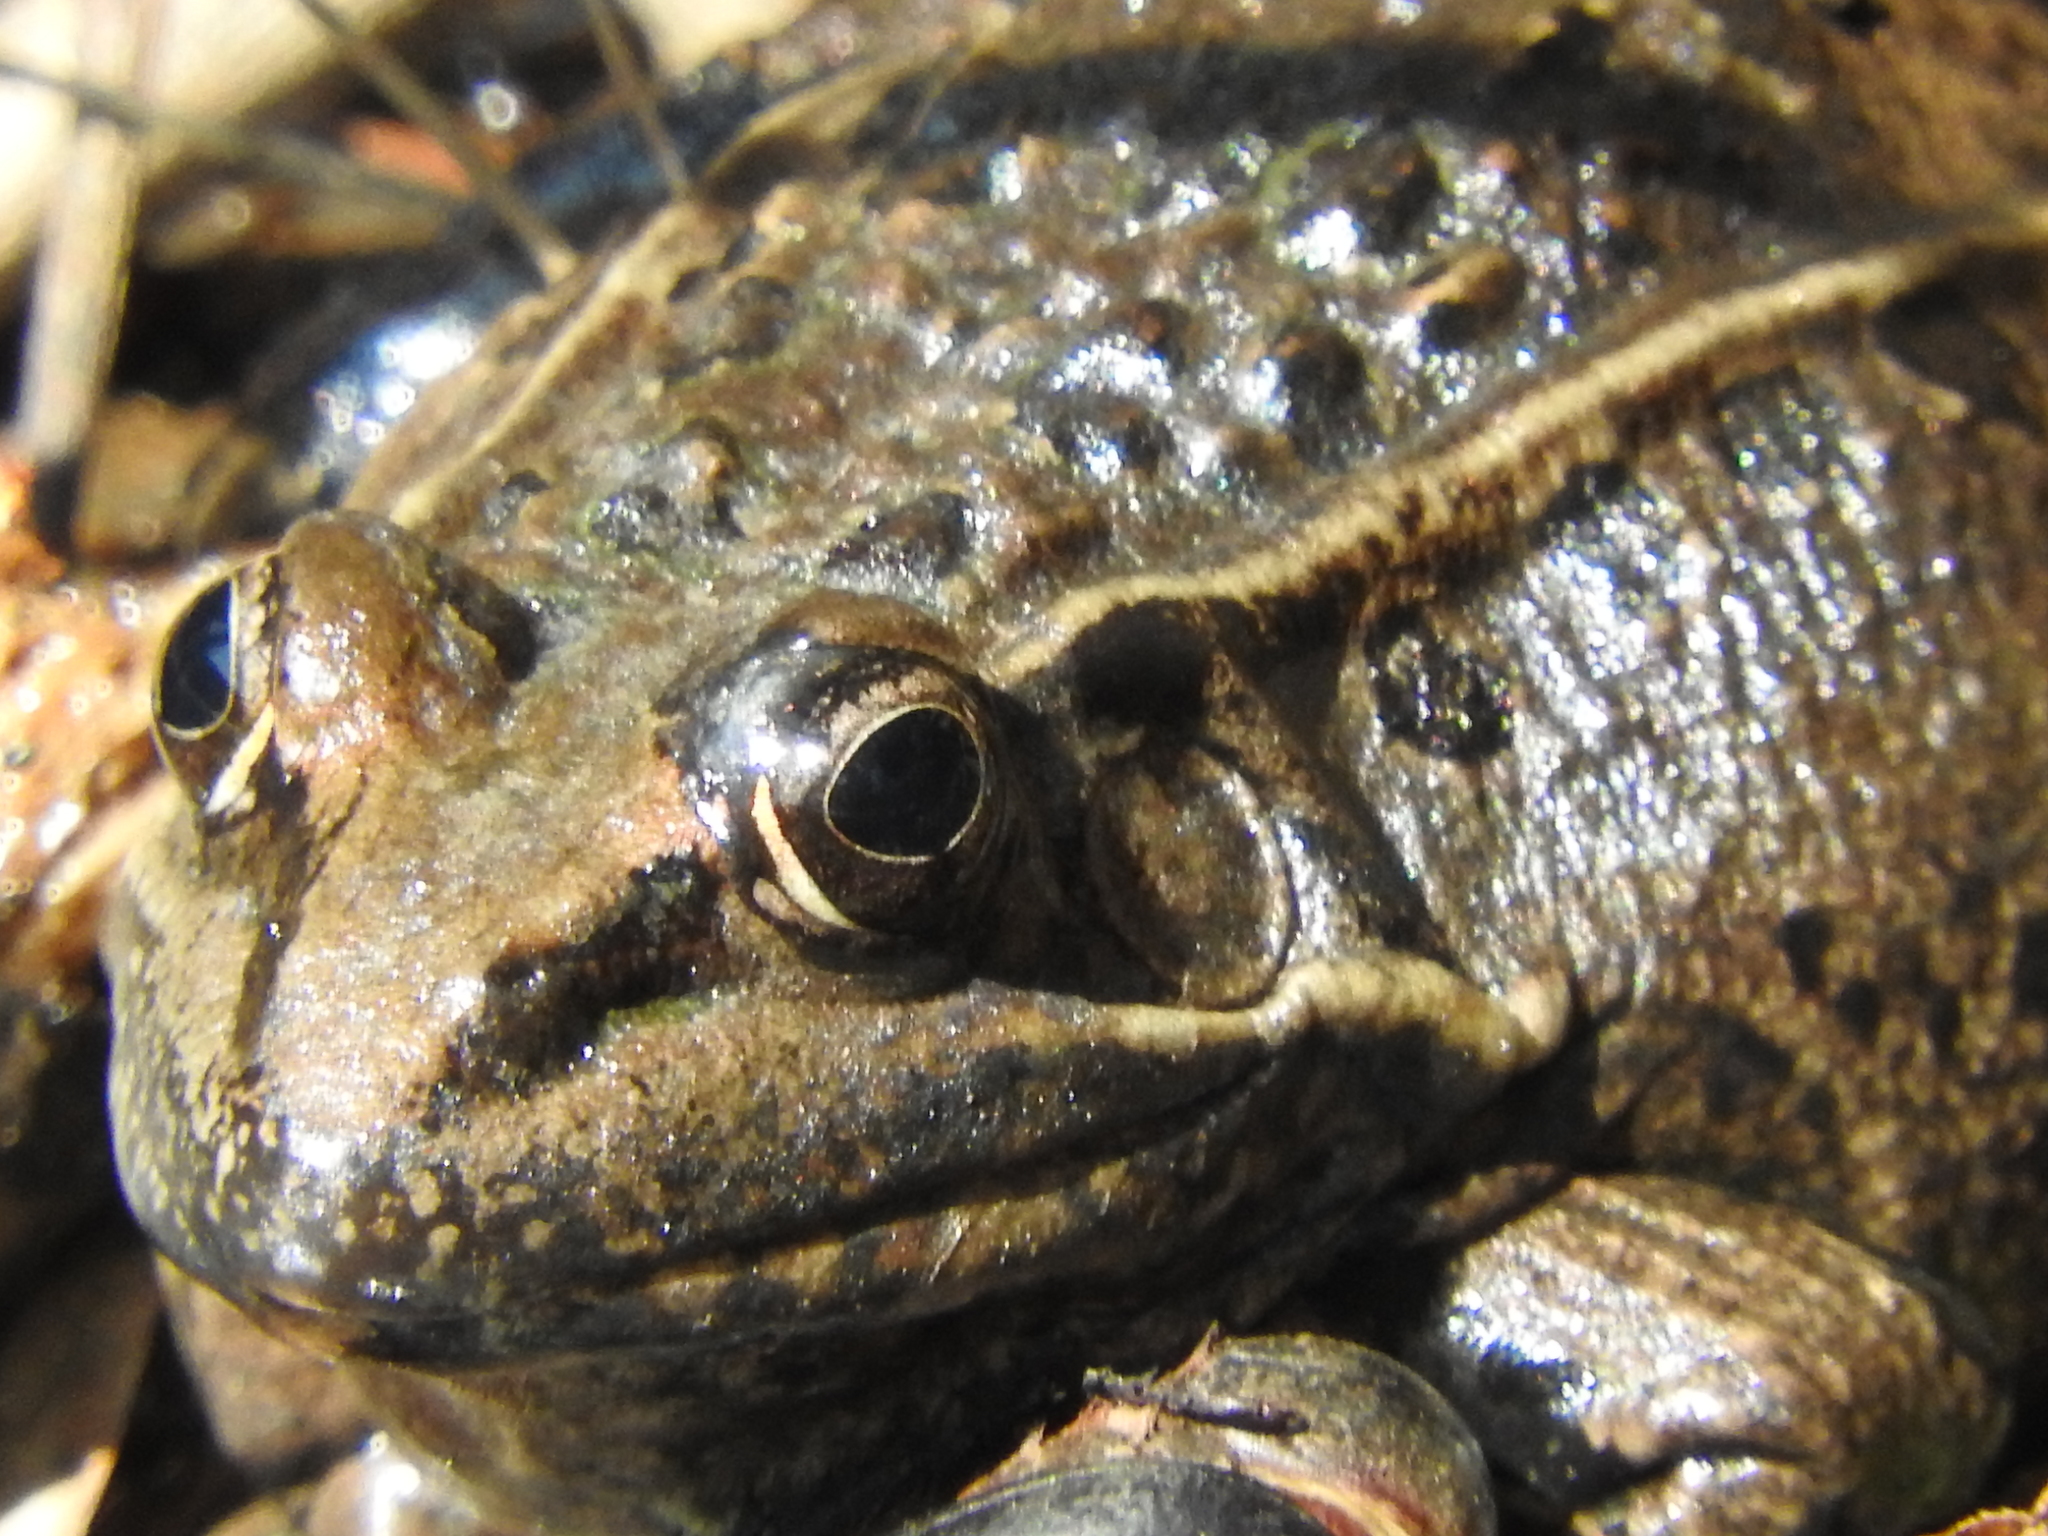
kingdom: Animalia
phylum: Chordata
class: Amphibia
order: Anura
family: Ranidae
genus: Lithobates
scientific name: Lithobates neovolcanicus
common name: Transverse volcanic leopard frog
